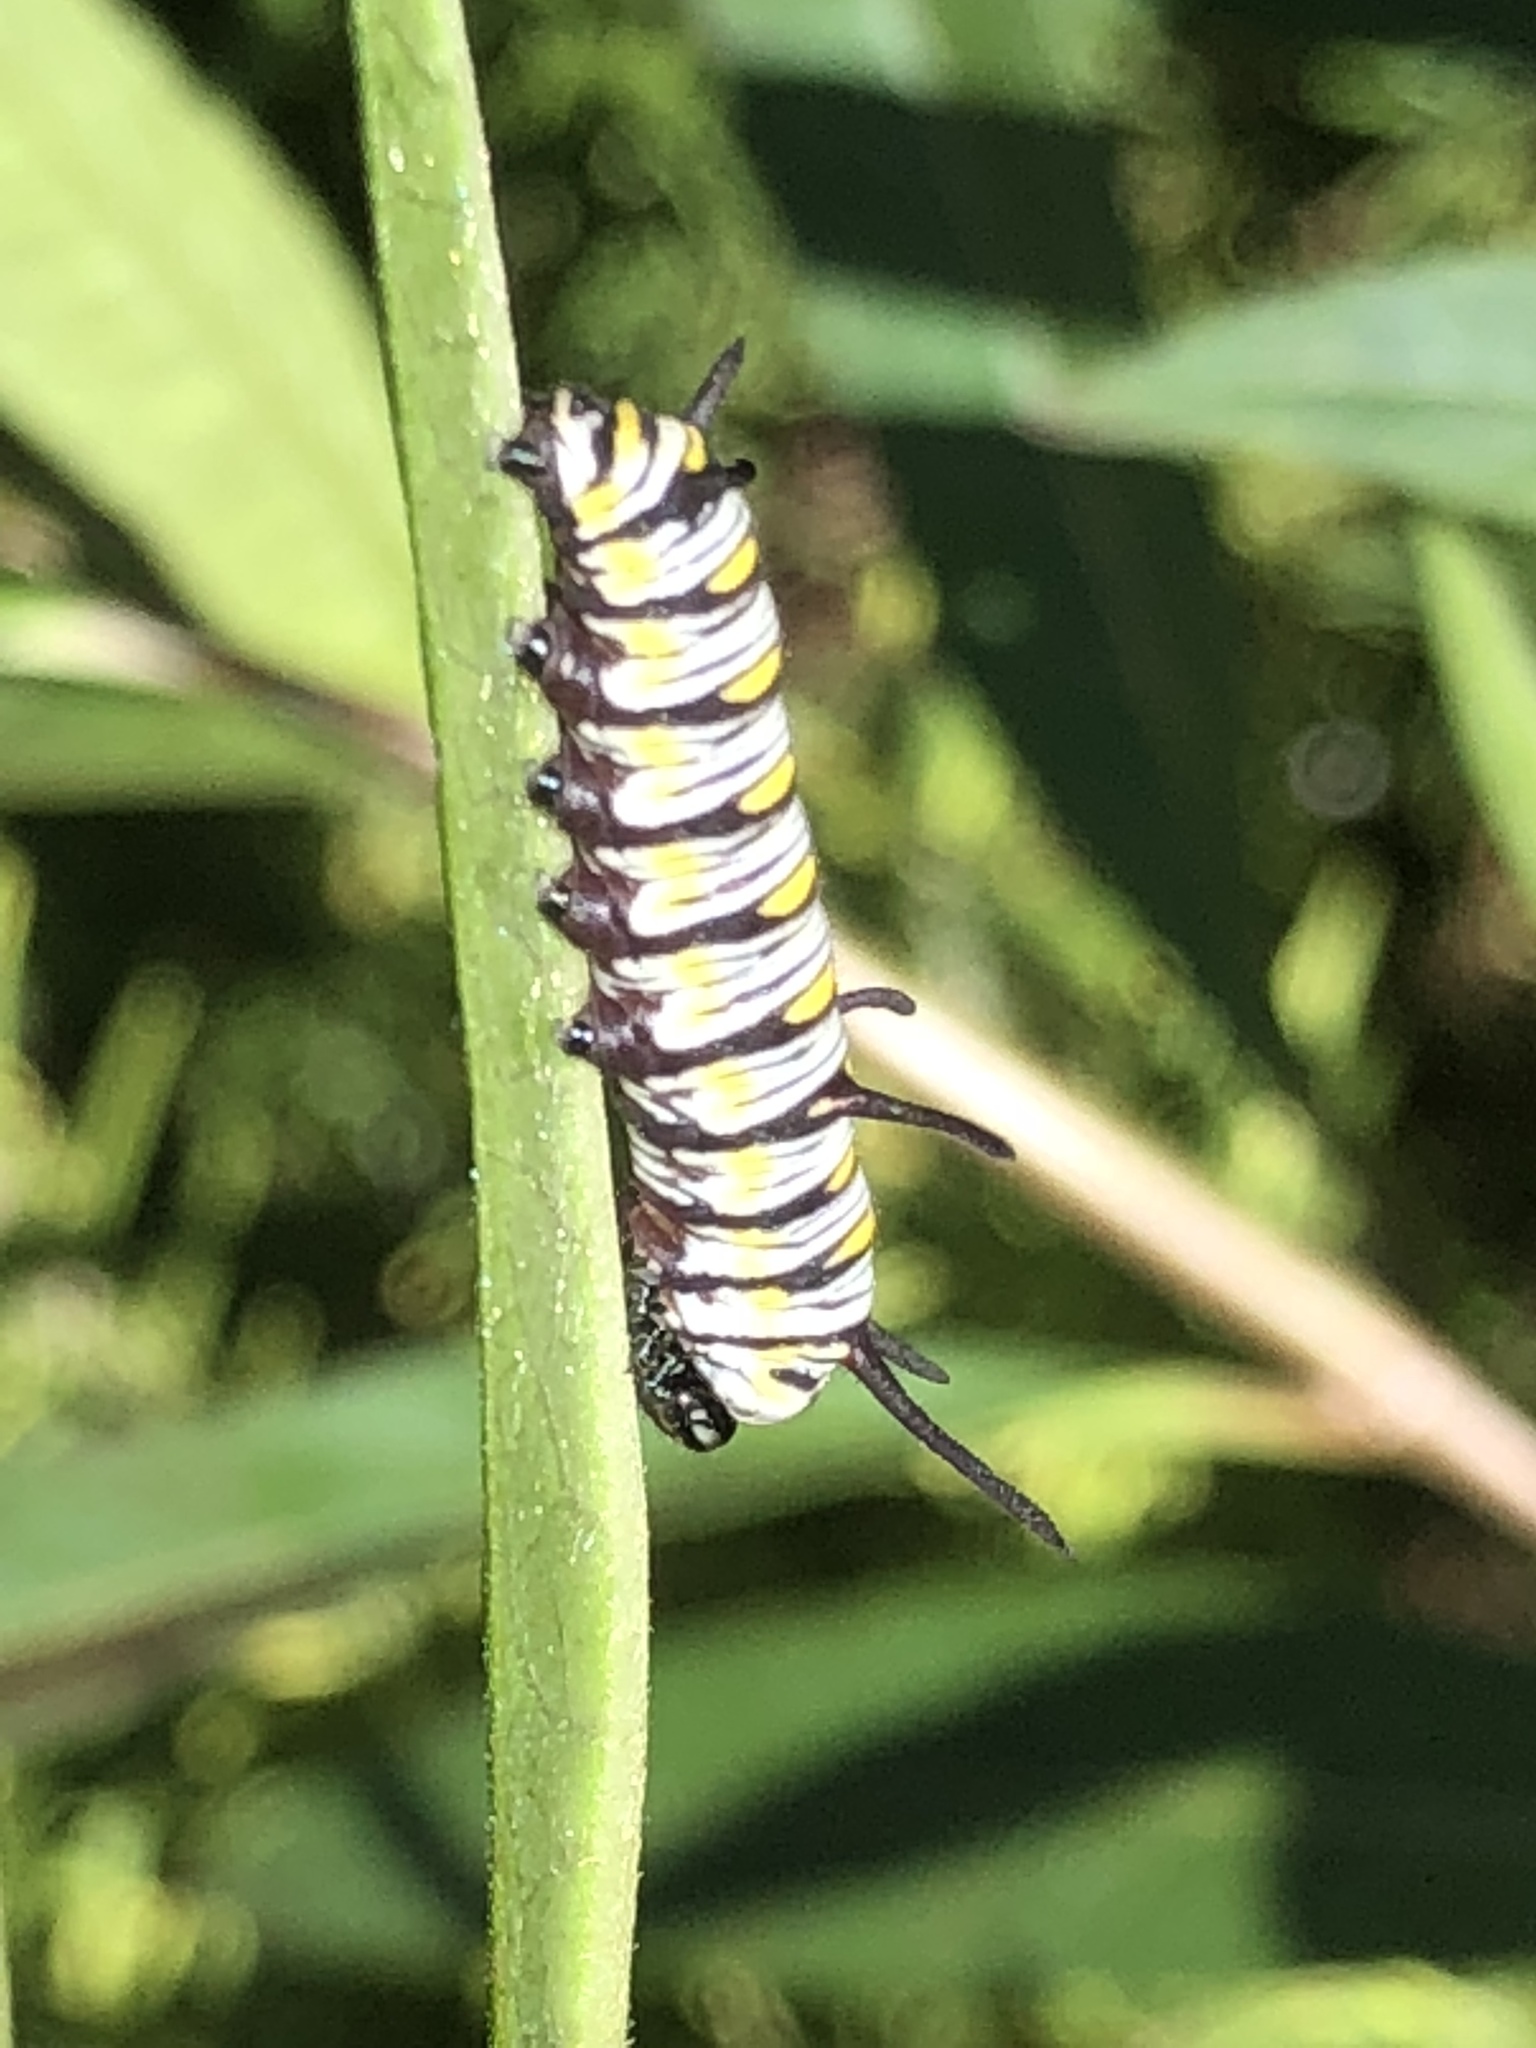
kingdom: Animalia
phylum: Arthropoda
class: Insecta
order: Lepidoptera
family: Nymphalidae
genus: Danaus
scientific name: Danaus gilippus
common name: Queen
